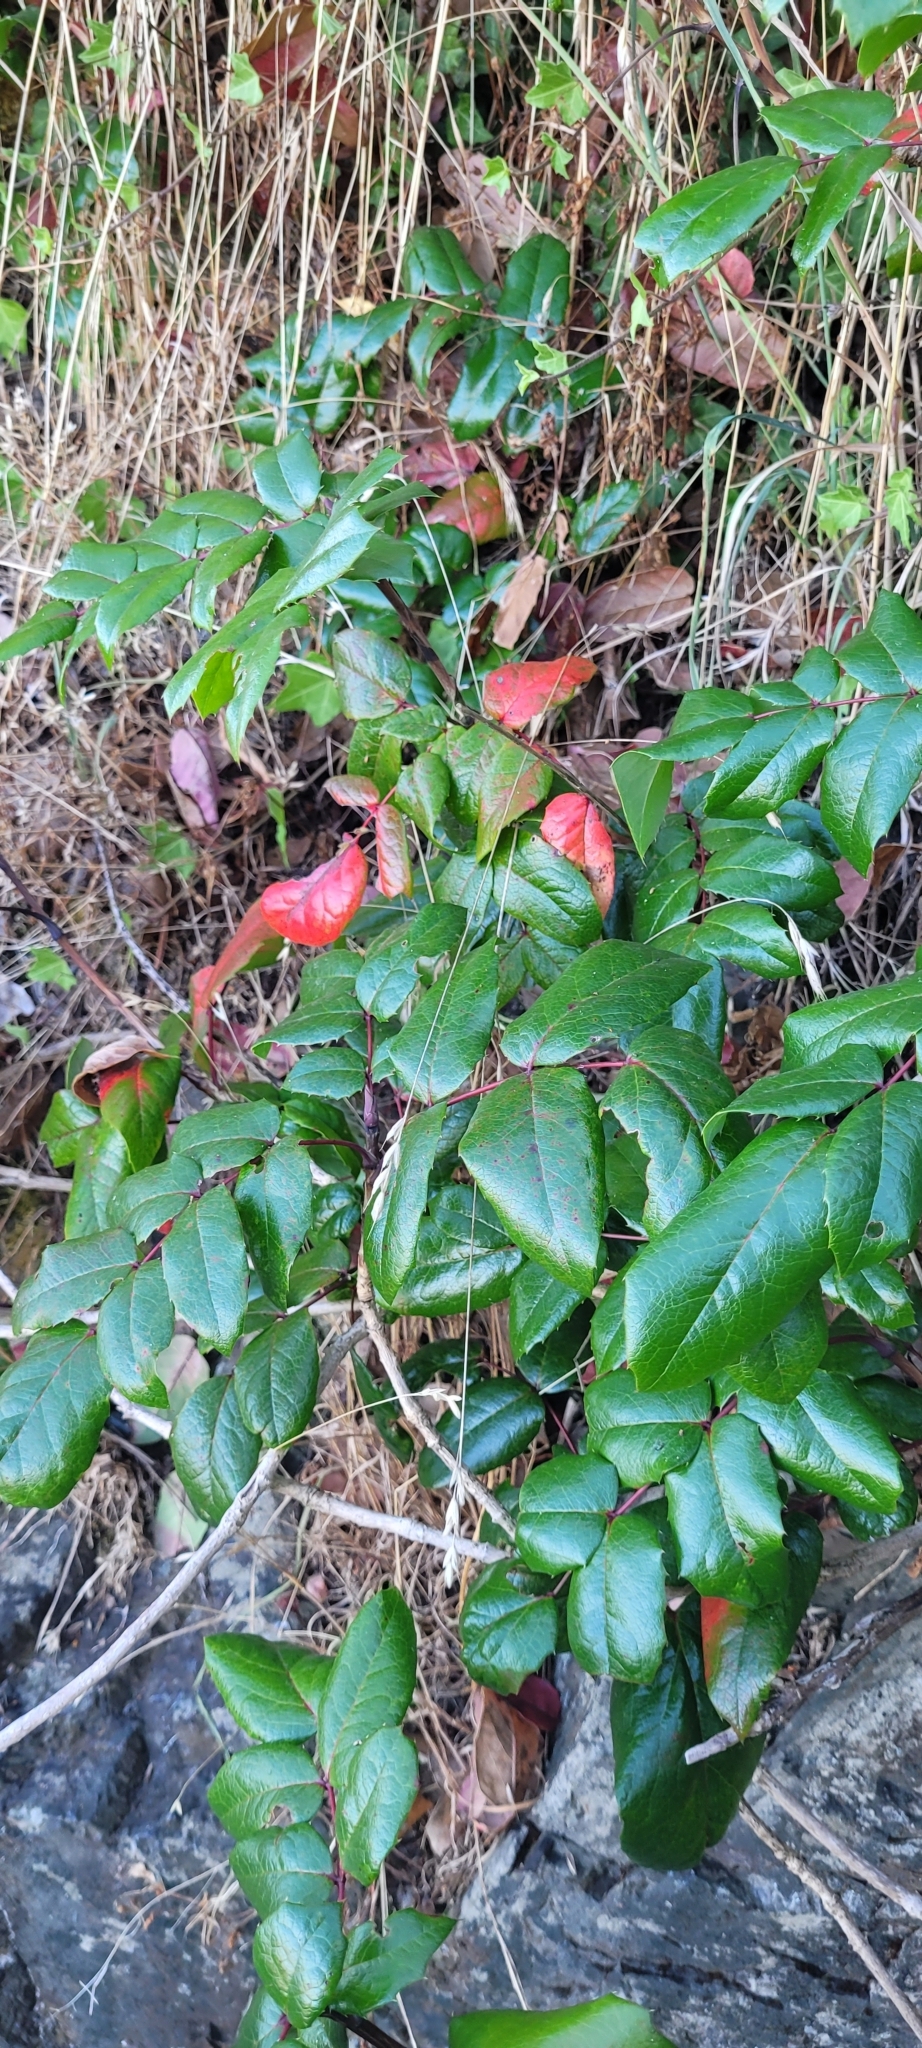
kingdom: Plantae
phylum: Tracheophyta
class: Magnoliopsida
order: Ranunculales
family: Berberidaceae
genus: Mahonia
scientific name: Mahonia aquifolium
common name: Oregon-grape
